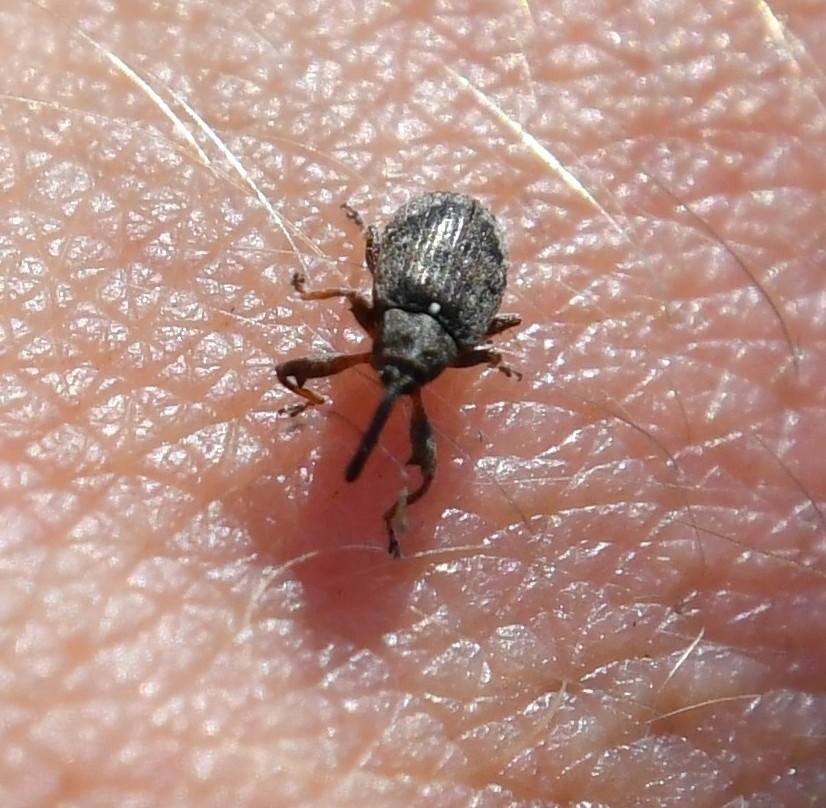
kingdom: Animalia
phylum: Arthropoda
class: Insecta
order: Coleoptera
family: Curculionidae
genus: Anthonomus
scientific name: Anthonomus pomorum
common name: Apple-blossom weevil
